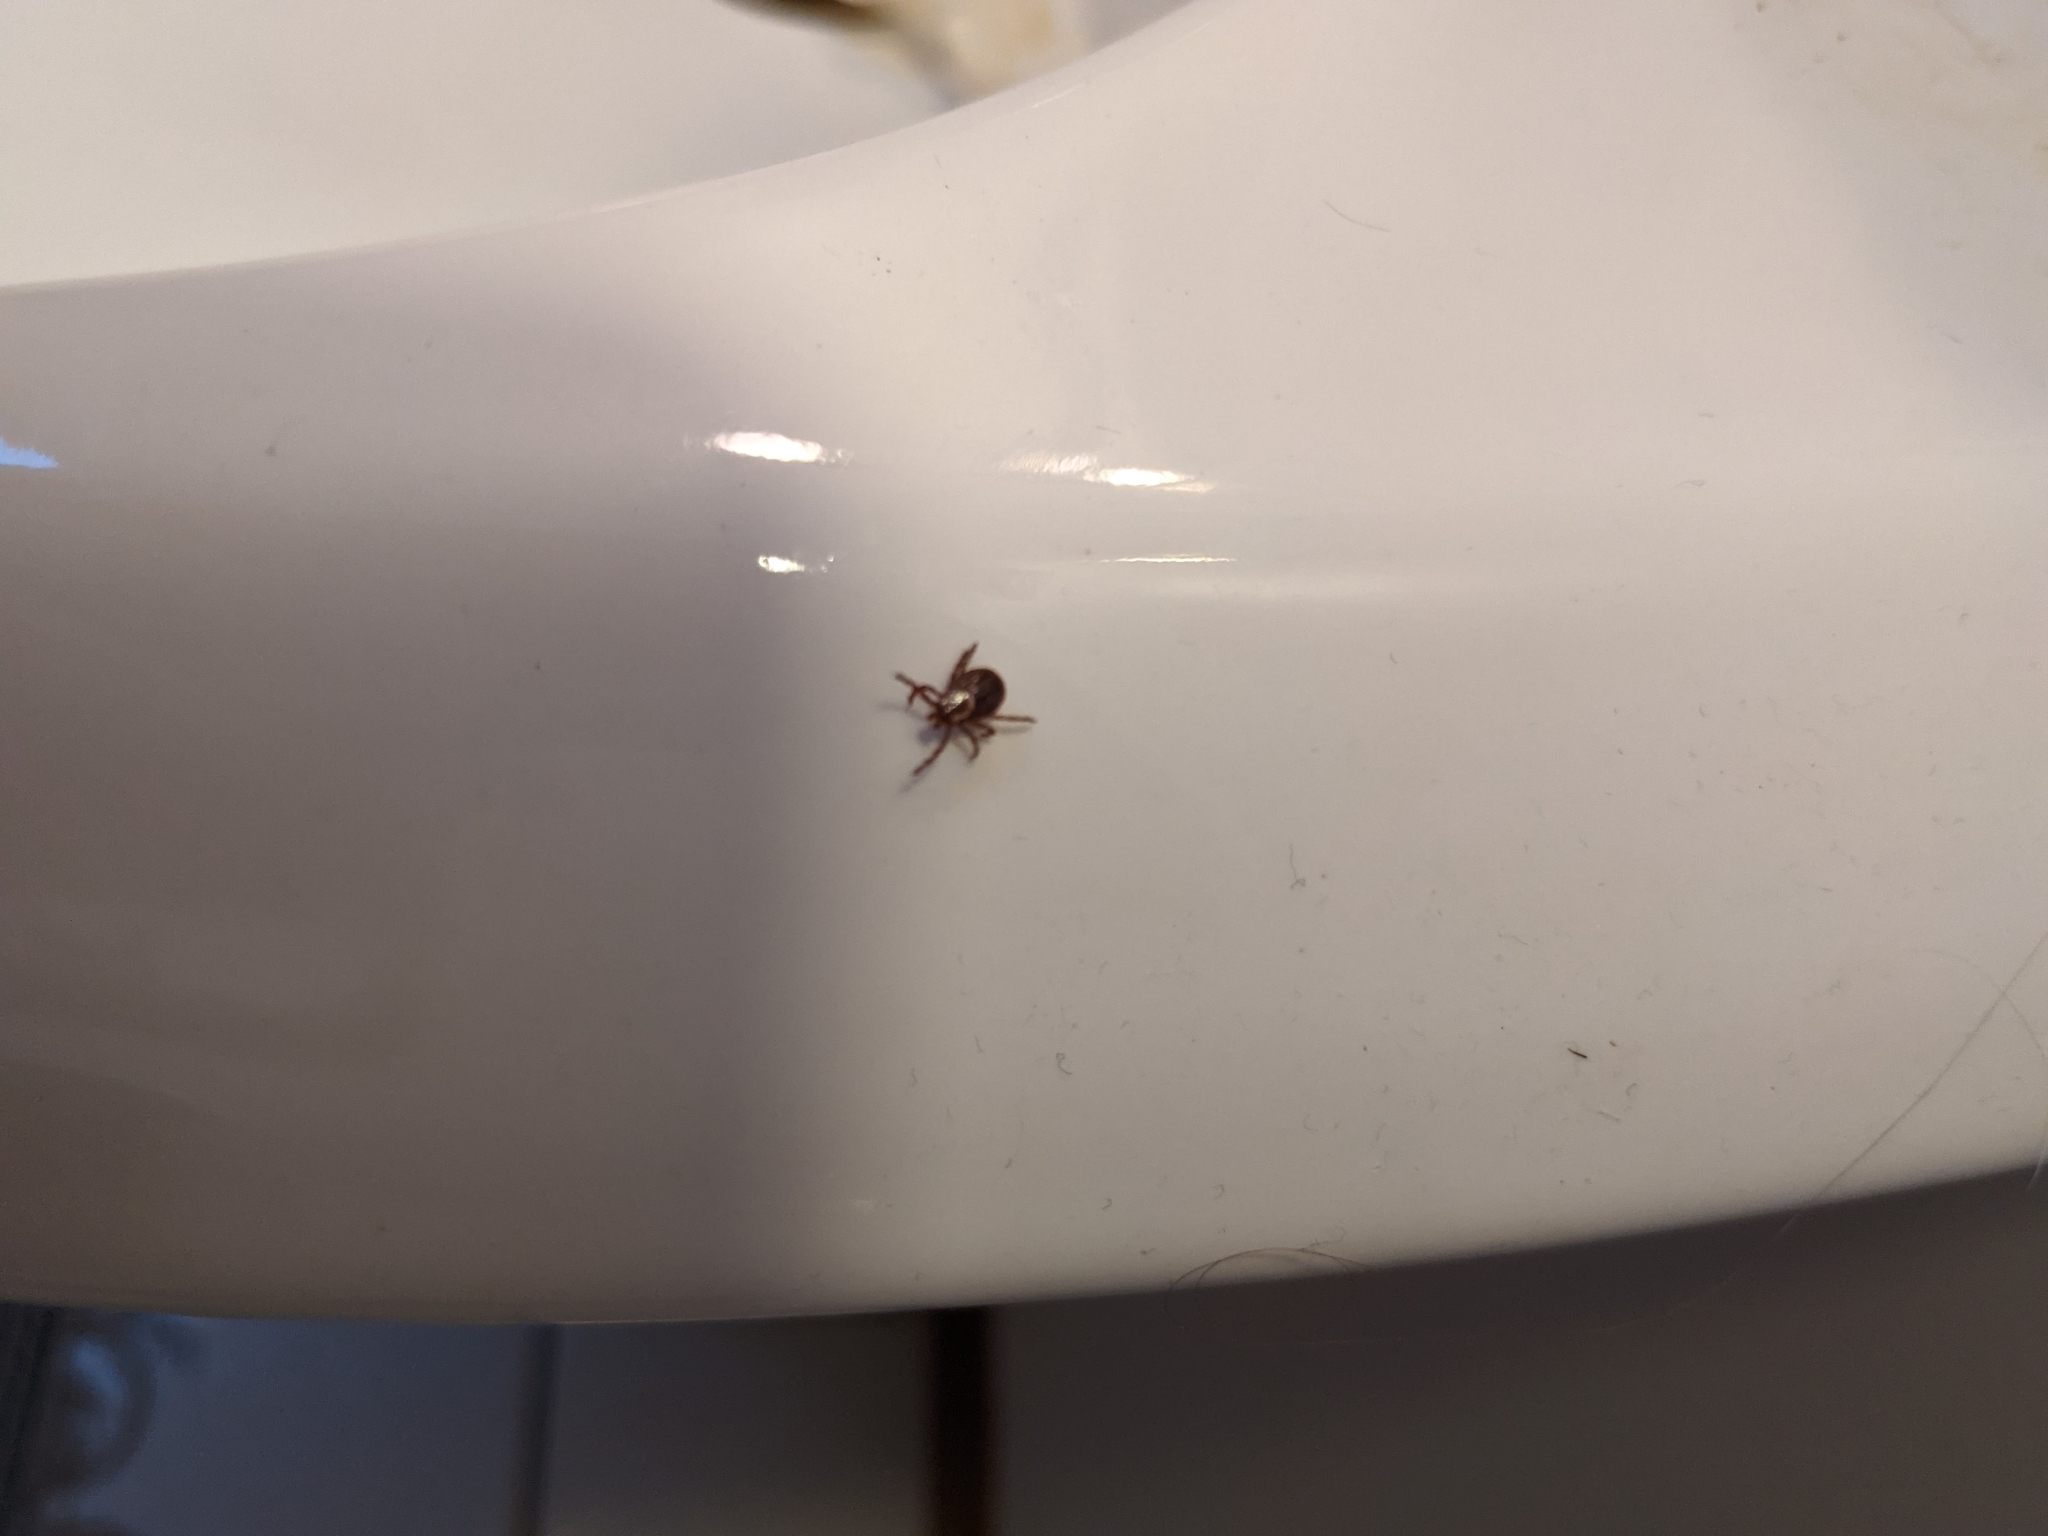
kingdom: Animalia
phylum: Arthropoda
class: Arachnida
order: Ixodida
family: Ixodidae
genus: Dermacentor
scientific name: Dermacentor variabilis
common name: American dog tick
